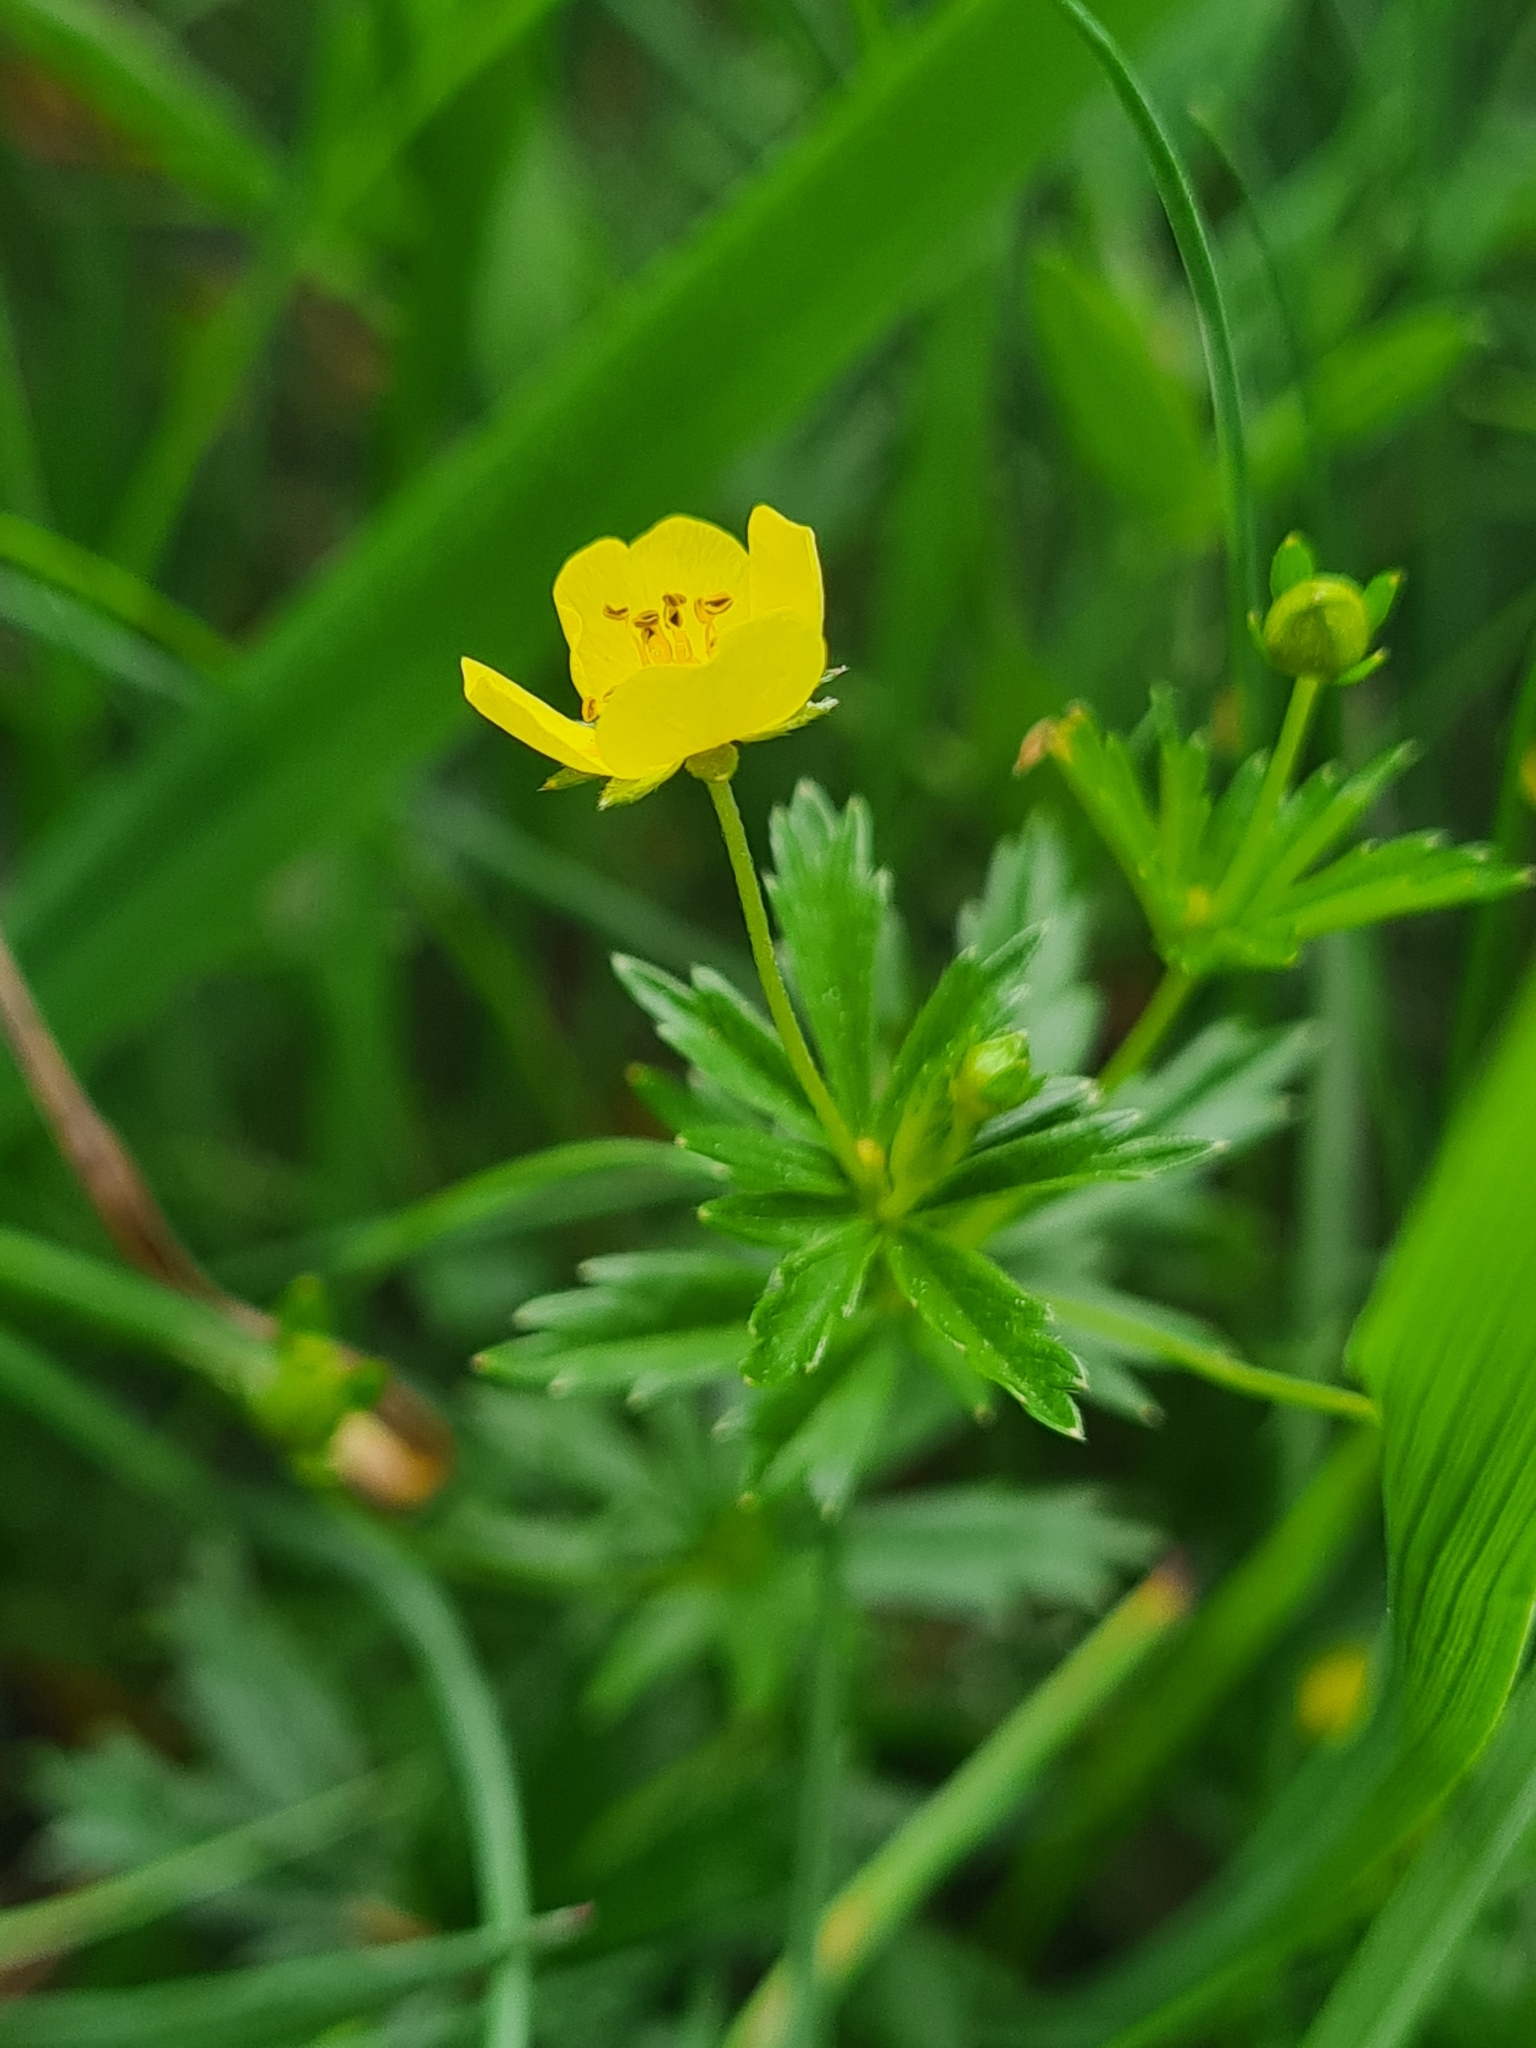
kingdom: Plantae
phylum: Tracheophyta
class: Magnoliopsida
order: Rosales
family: Rosaceae
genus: Potentilla
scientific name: Potentilla erecta
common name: Tormentil
